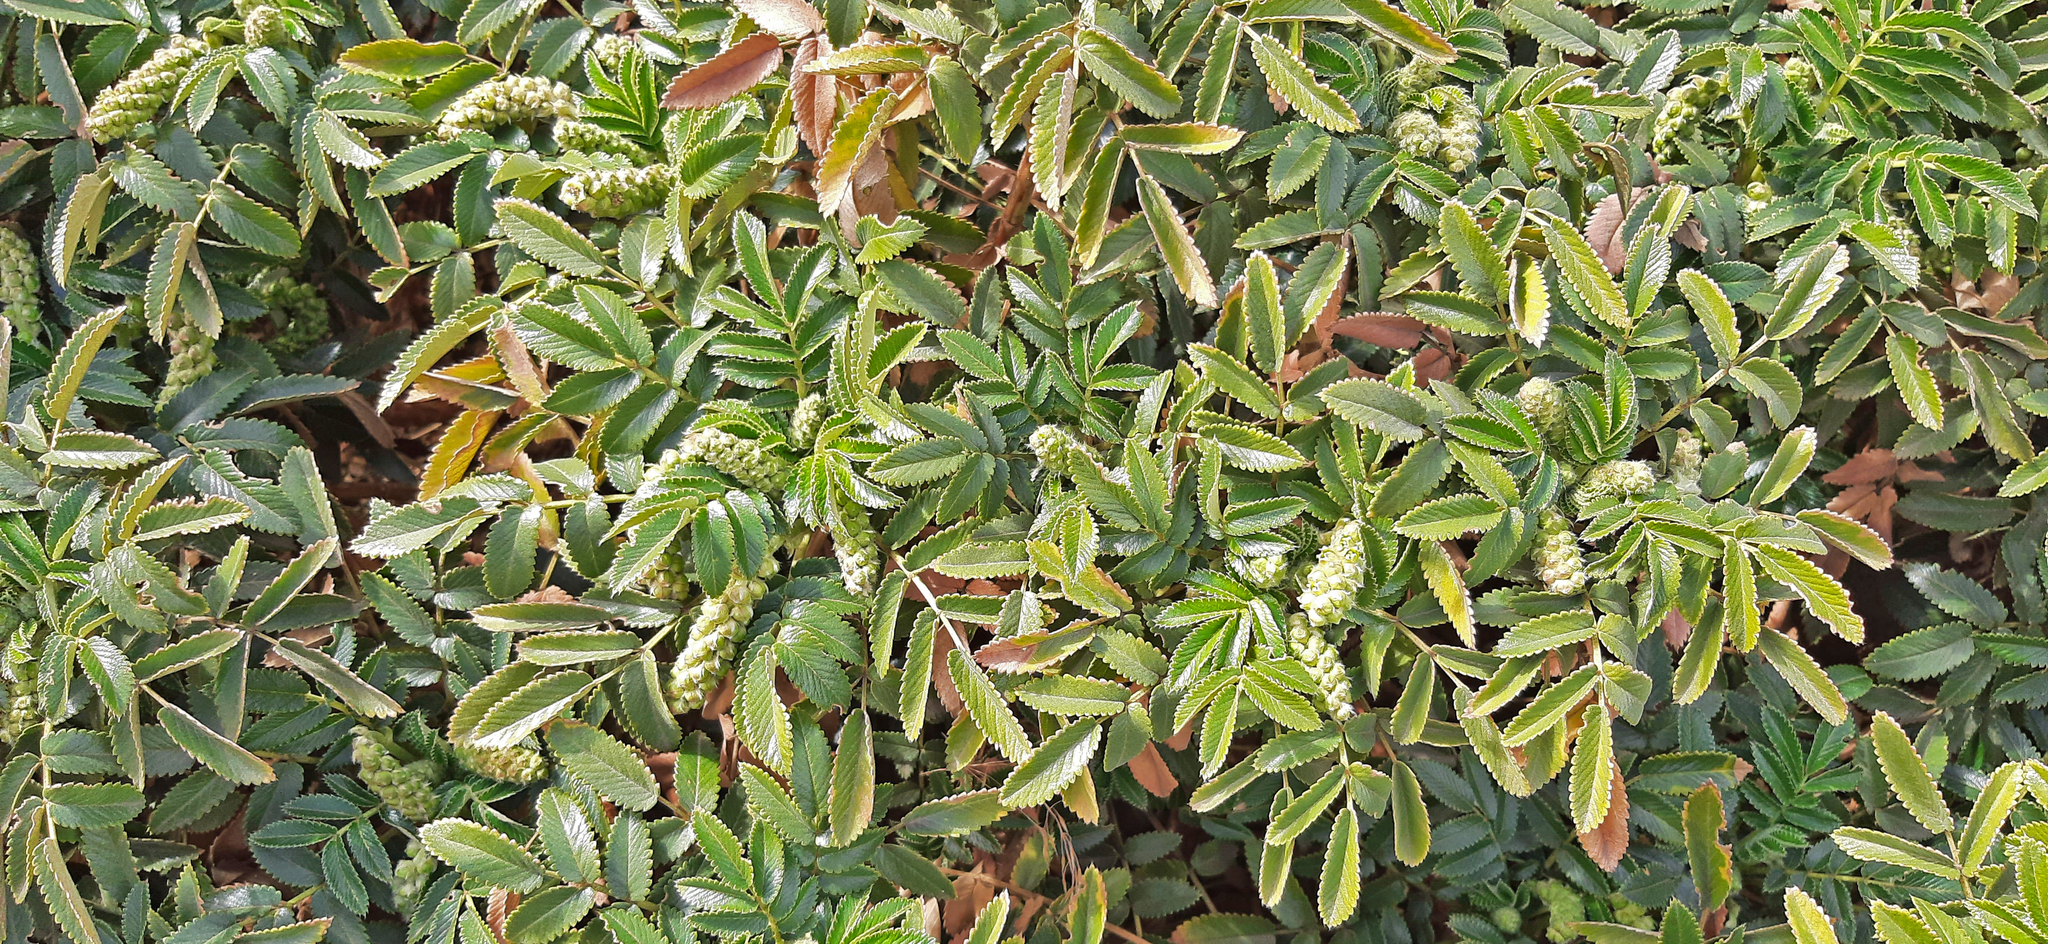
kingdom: Plantae
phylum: Tracheophyta
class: Magnoliopsida
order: Rosales
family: Rosaceae
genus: Bencomia
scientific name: Bencomia exstipulata
